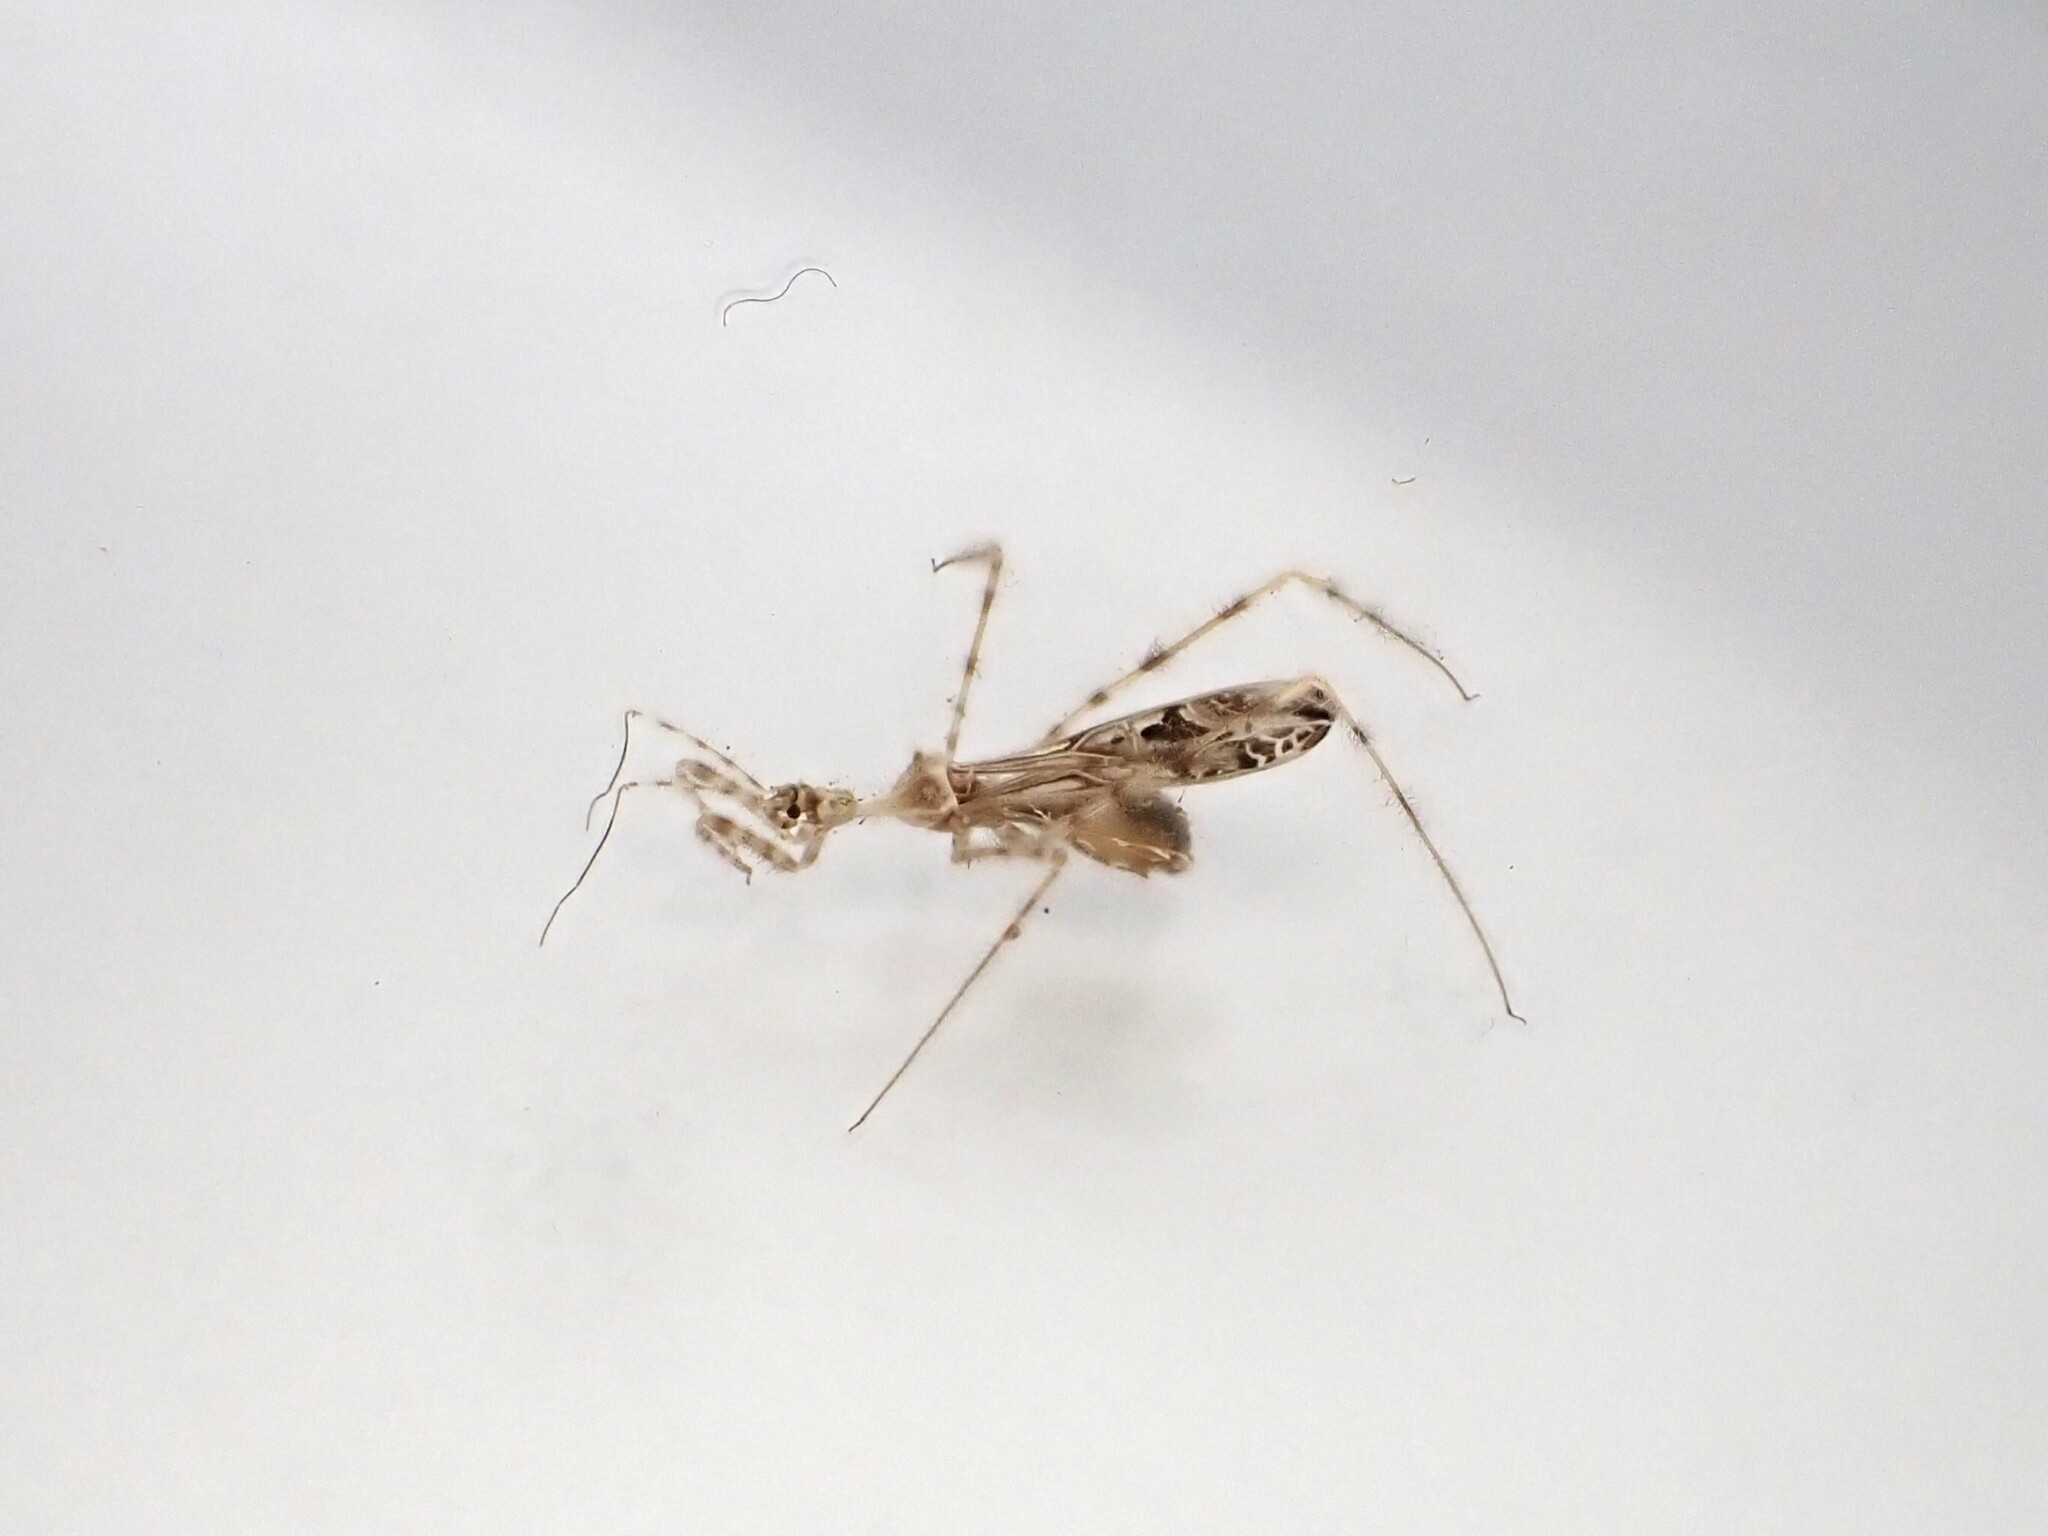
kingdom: Animalia
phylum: Arthropoda
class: Insecta
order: Hemiptera
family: Reduviidae
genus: Stenolemus
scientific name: Stenolemus fraterculus
